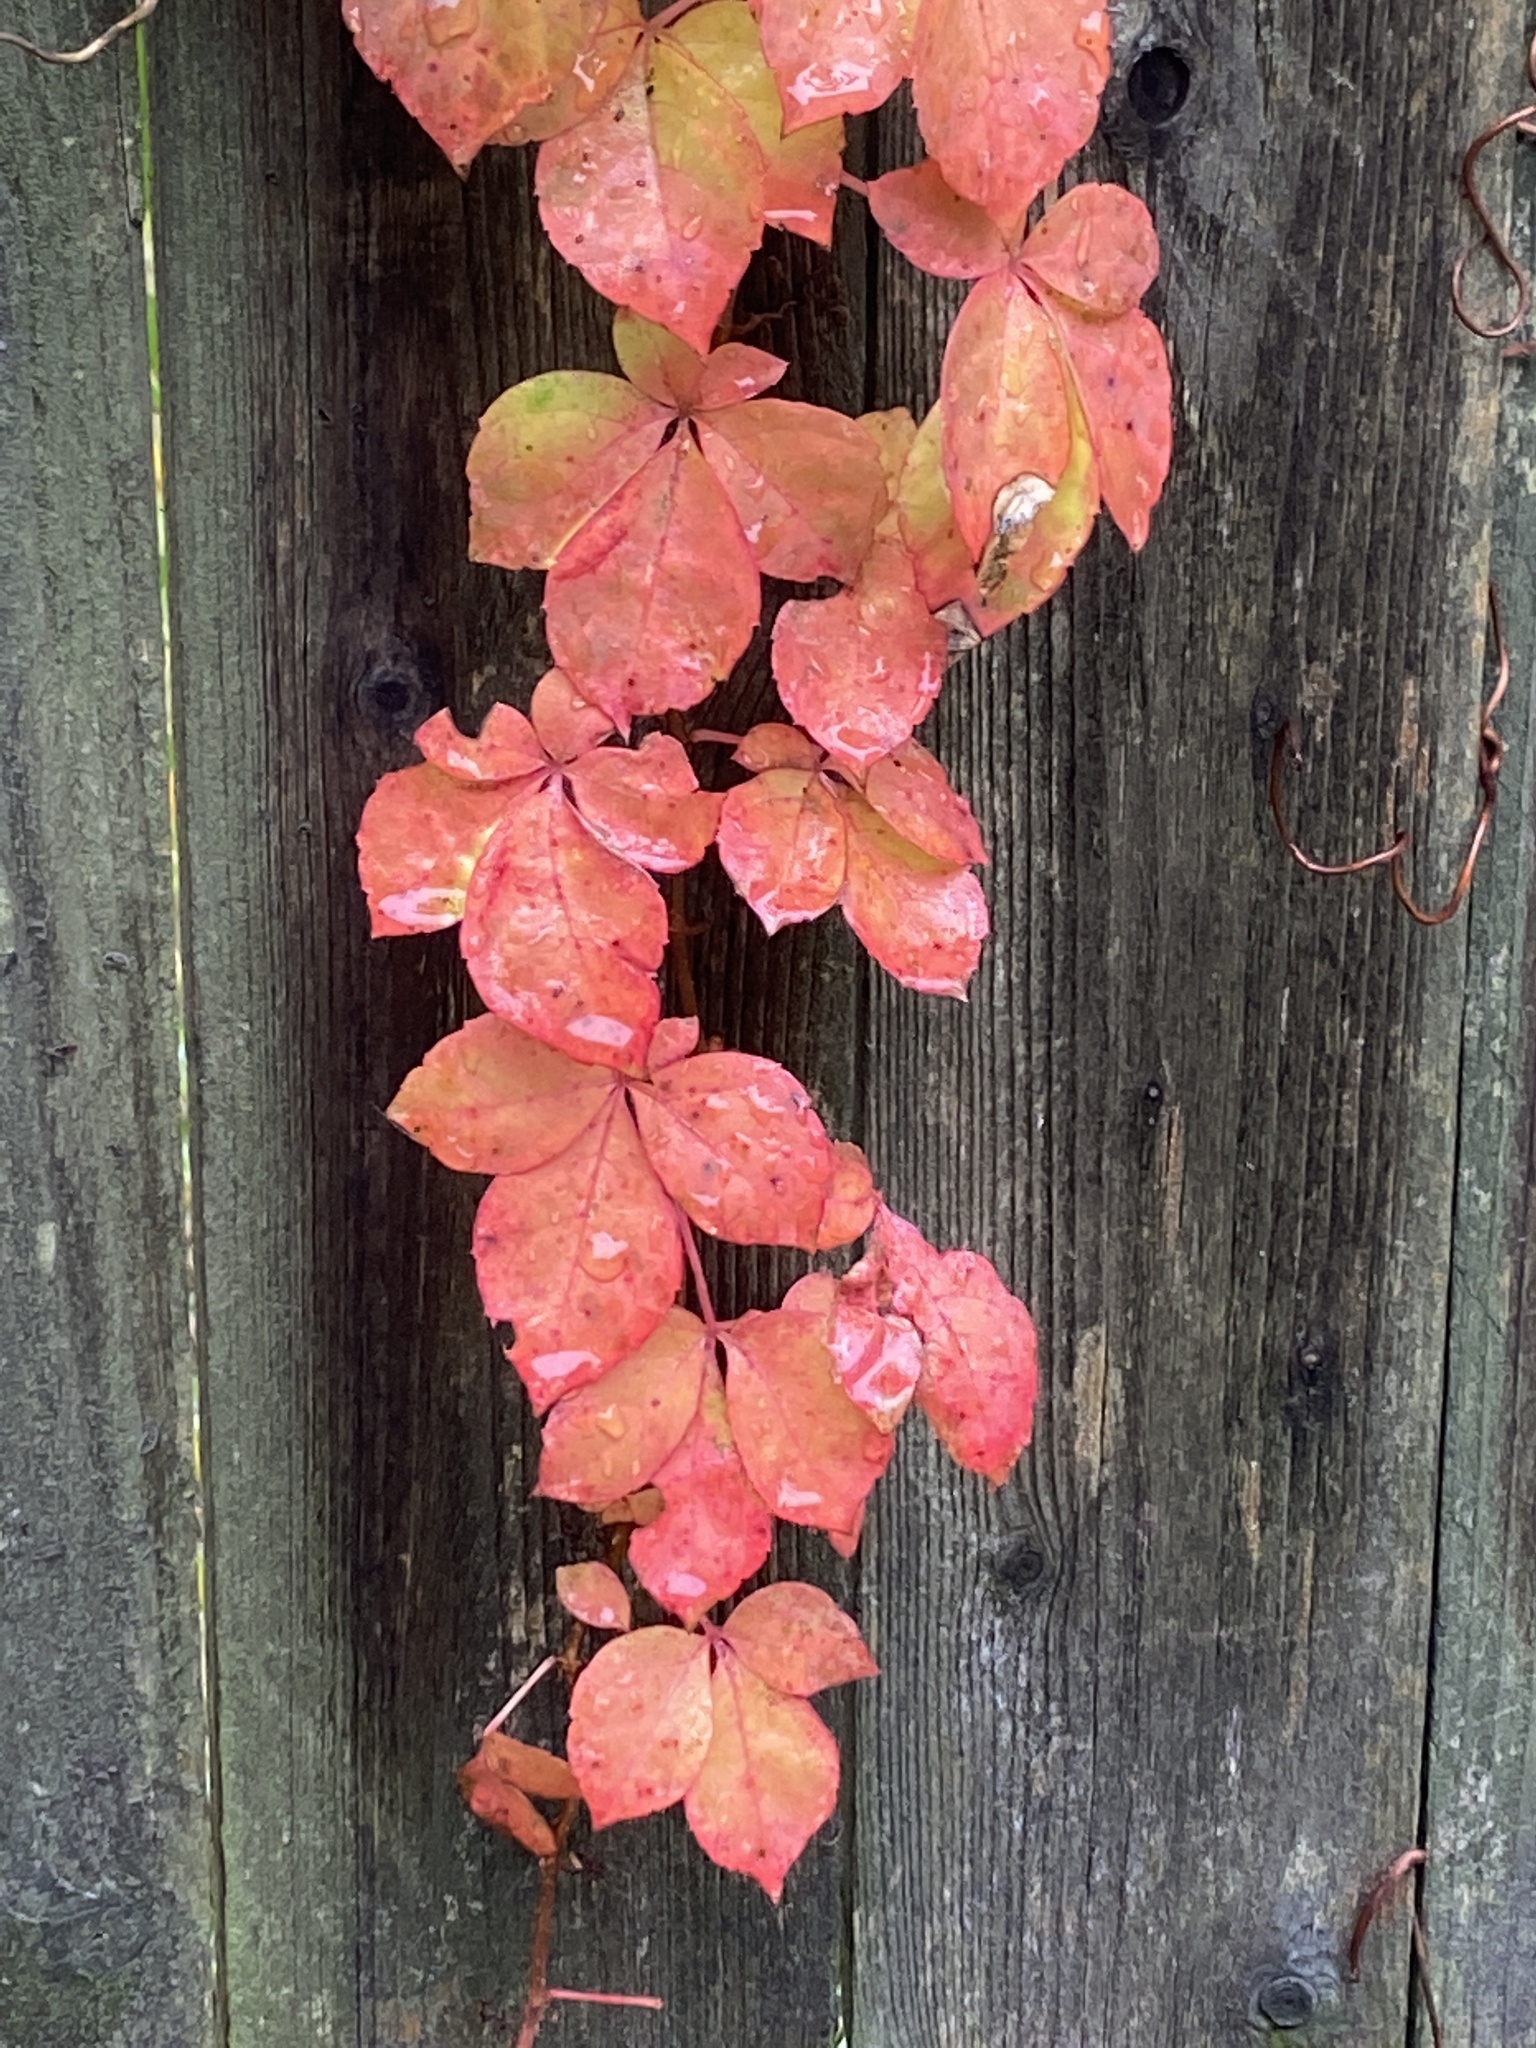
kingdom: Plantae
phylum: Tracheophyta
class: Magnoliopsida
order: Vitales
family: Vitaceae
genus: Parthenocissus
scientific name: Parthenocissus quinquefolia
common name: Virginia-creeper
